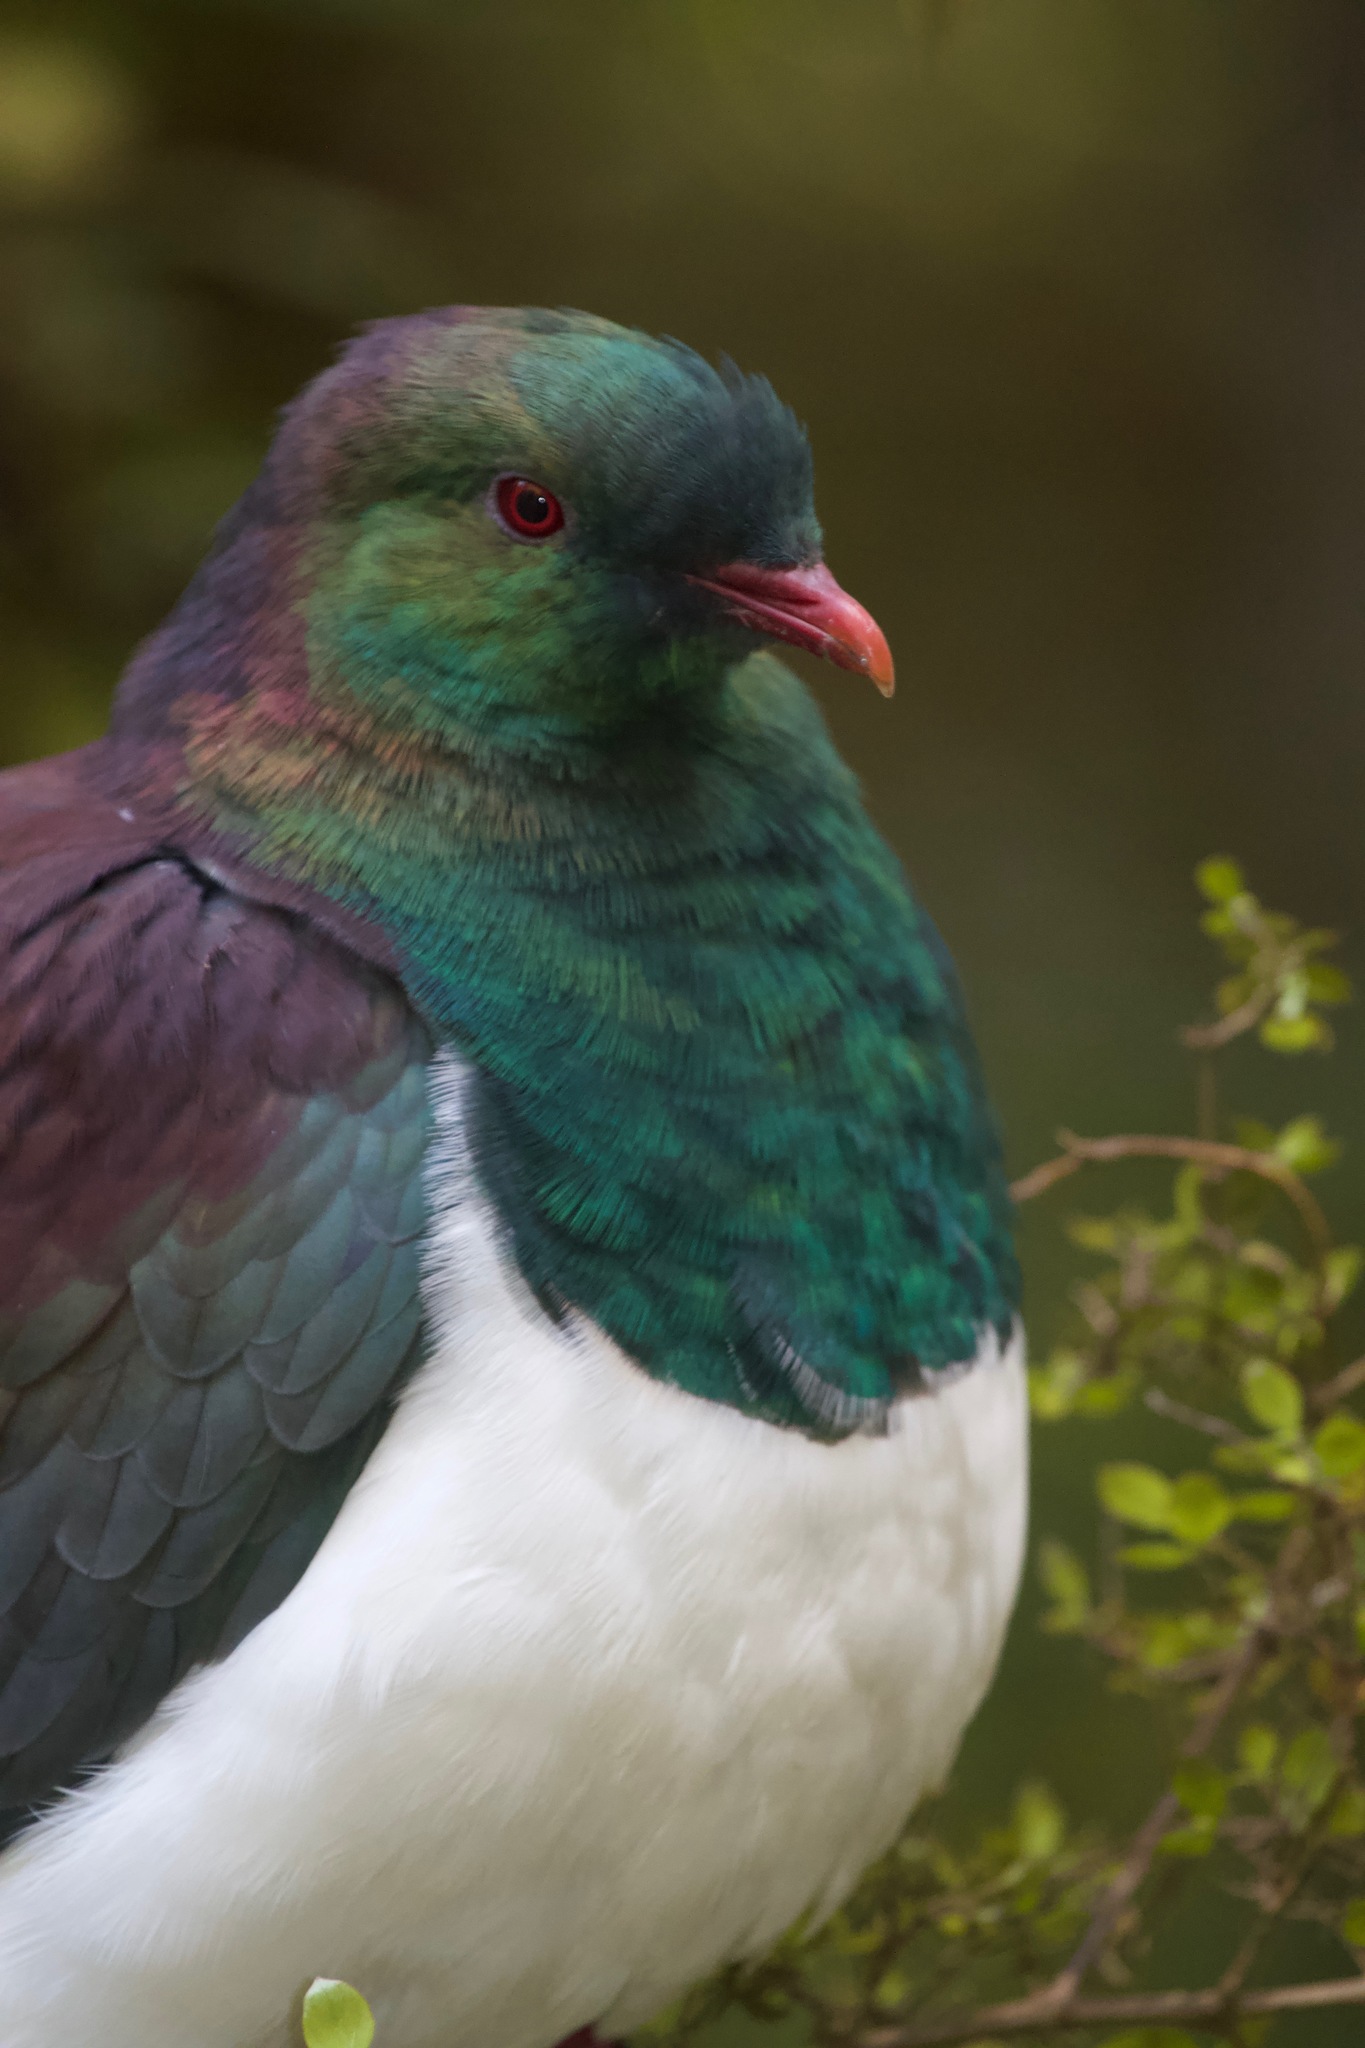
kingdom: Animalia
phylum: Chordata
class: Aves
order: Columbiformes
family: Columbidae
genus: Hemiphaga
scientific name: Hemiphaga novaeseelandiae
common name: New zealand pigeon
